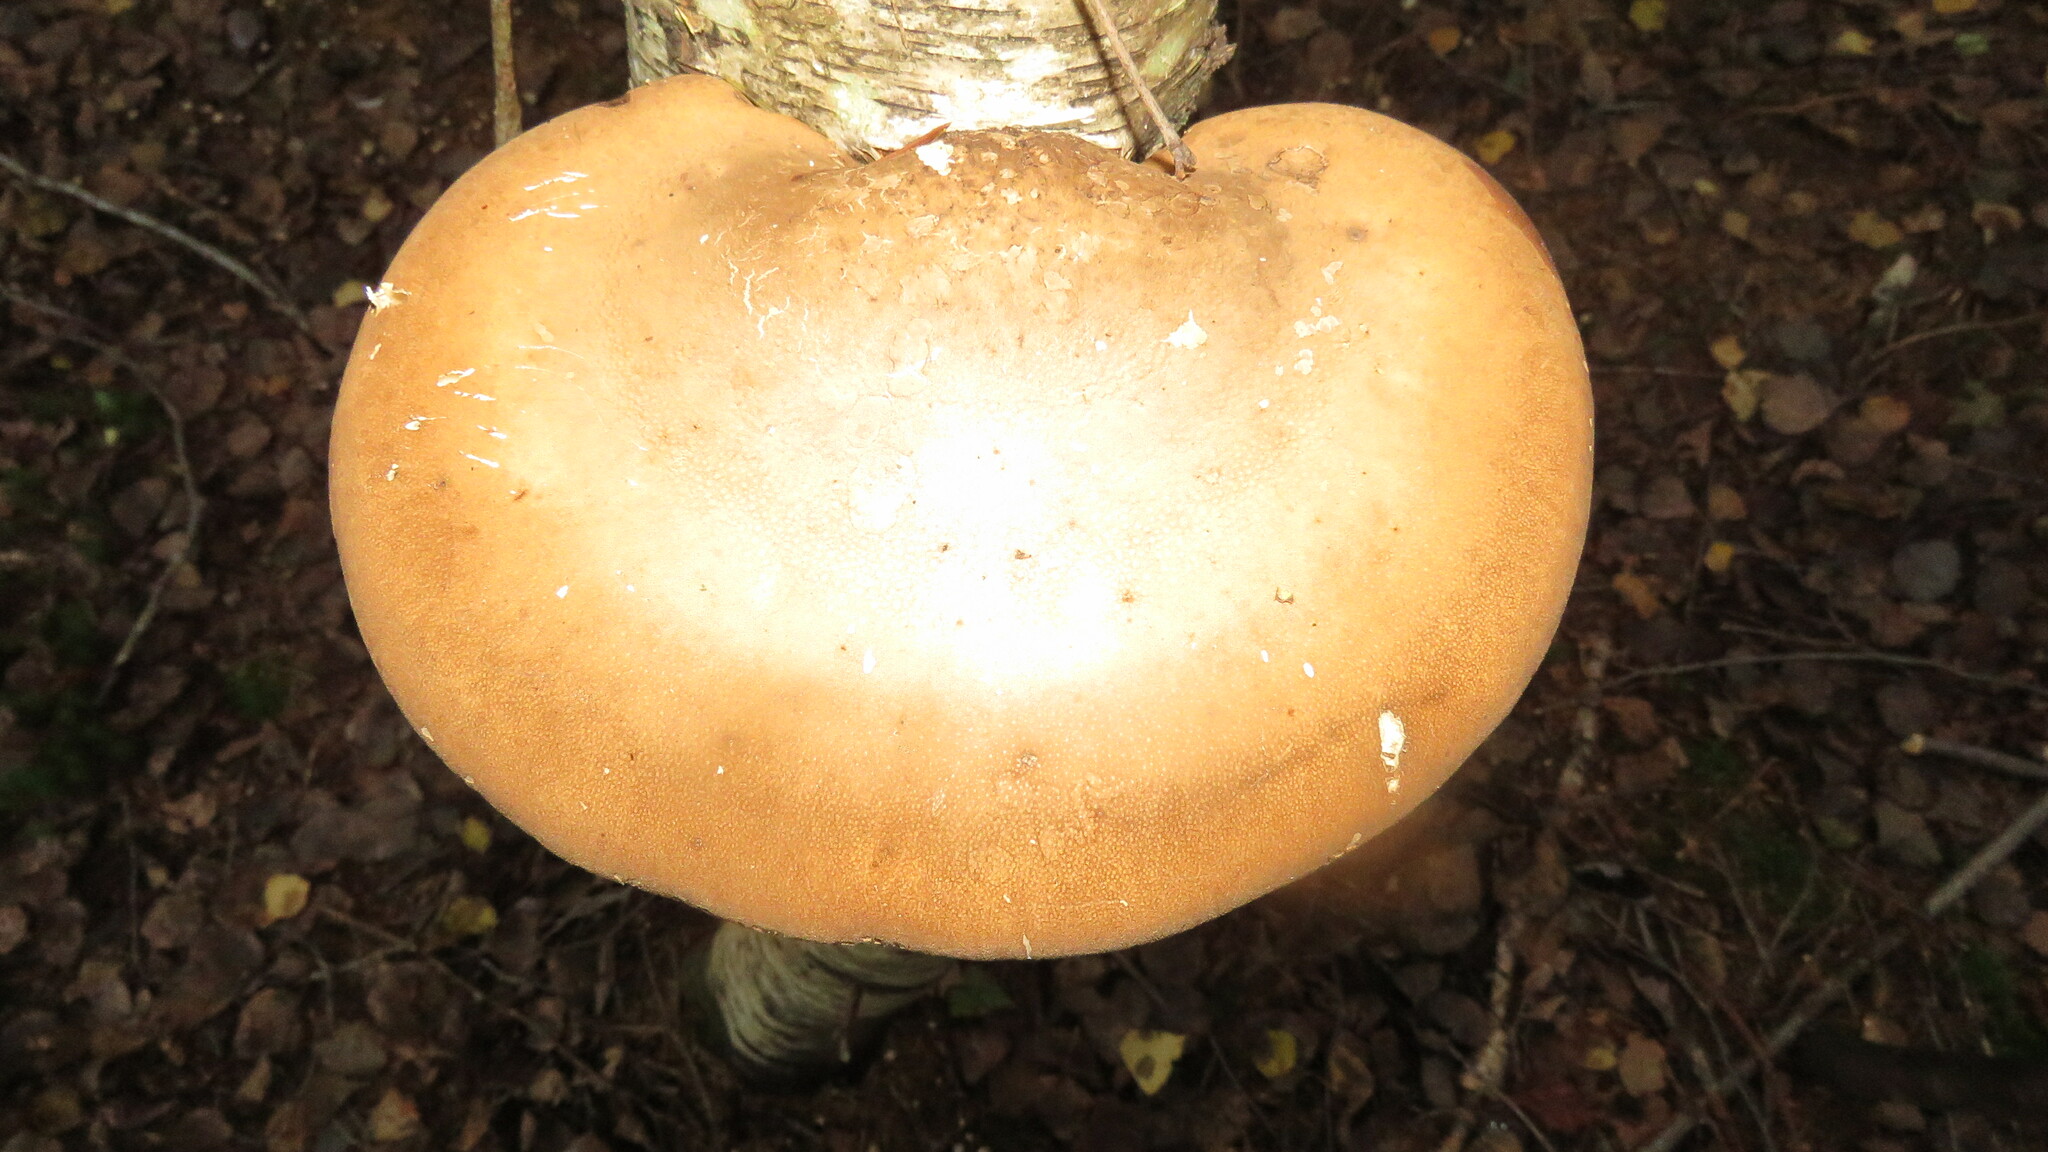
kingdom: Fungi
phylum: Basidiomycota
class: Agaricomycetes
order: Polyporales
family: Fomitopsidaceae
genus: Fomitopsis
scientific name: Fomitopsis betulina
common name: Birch polypore
